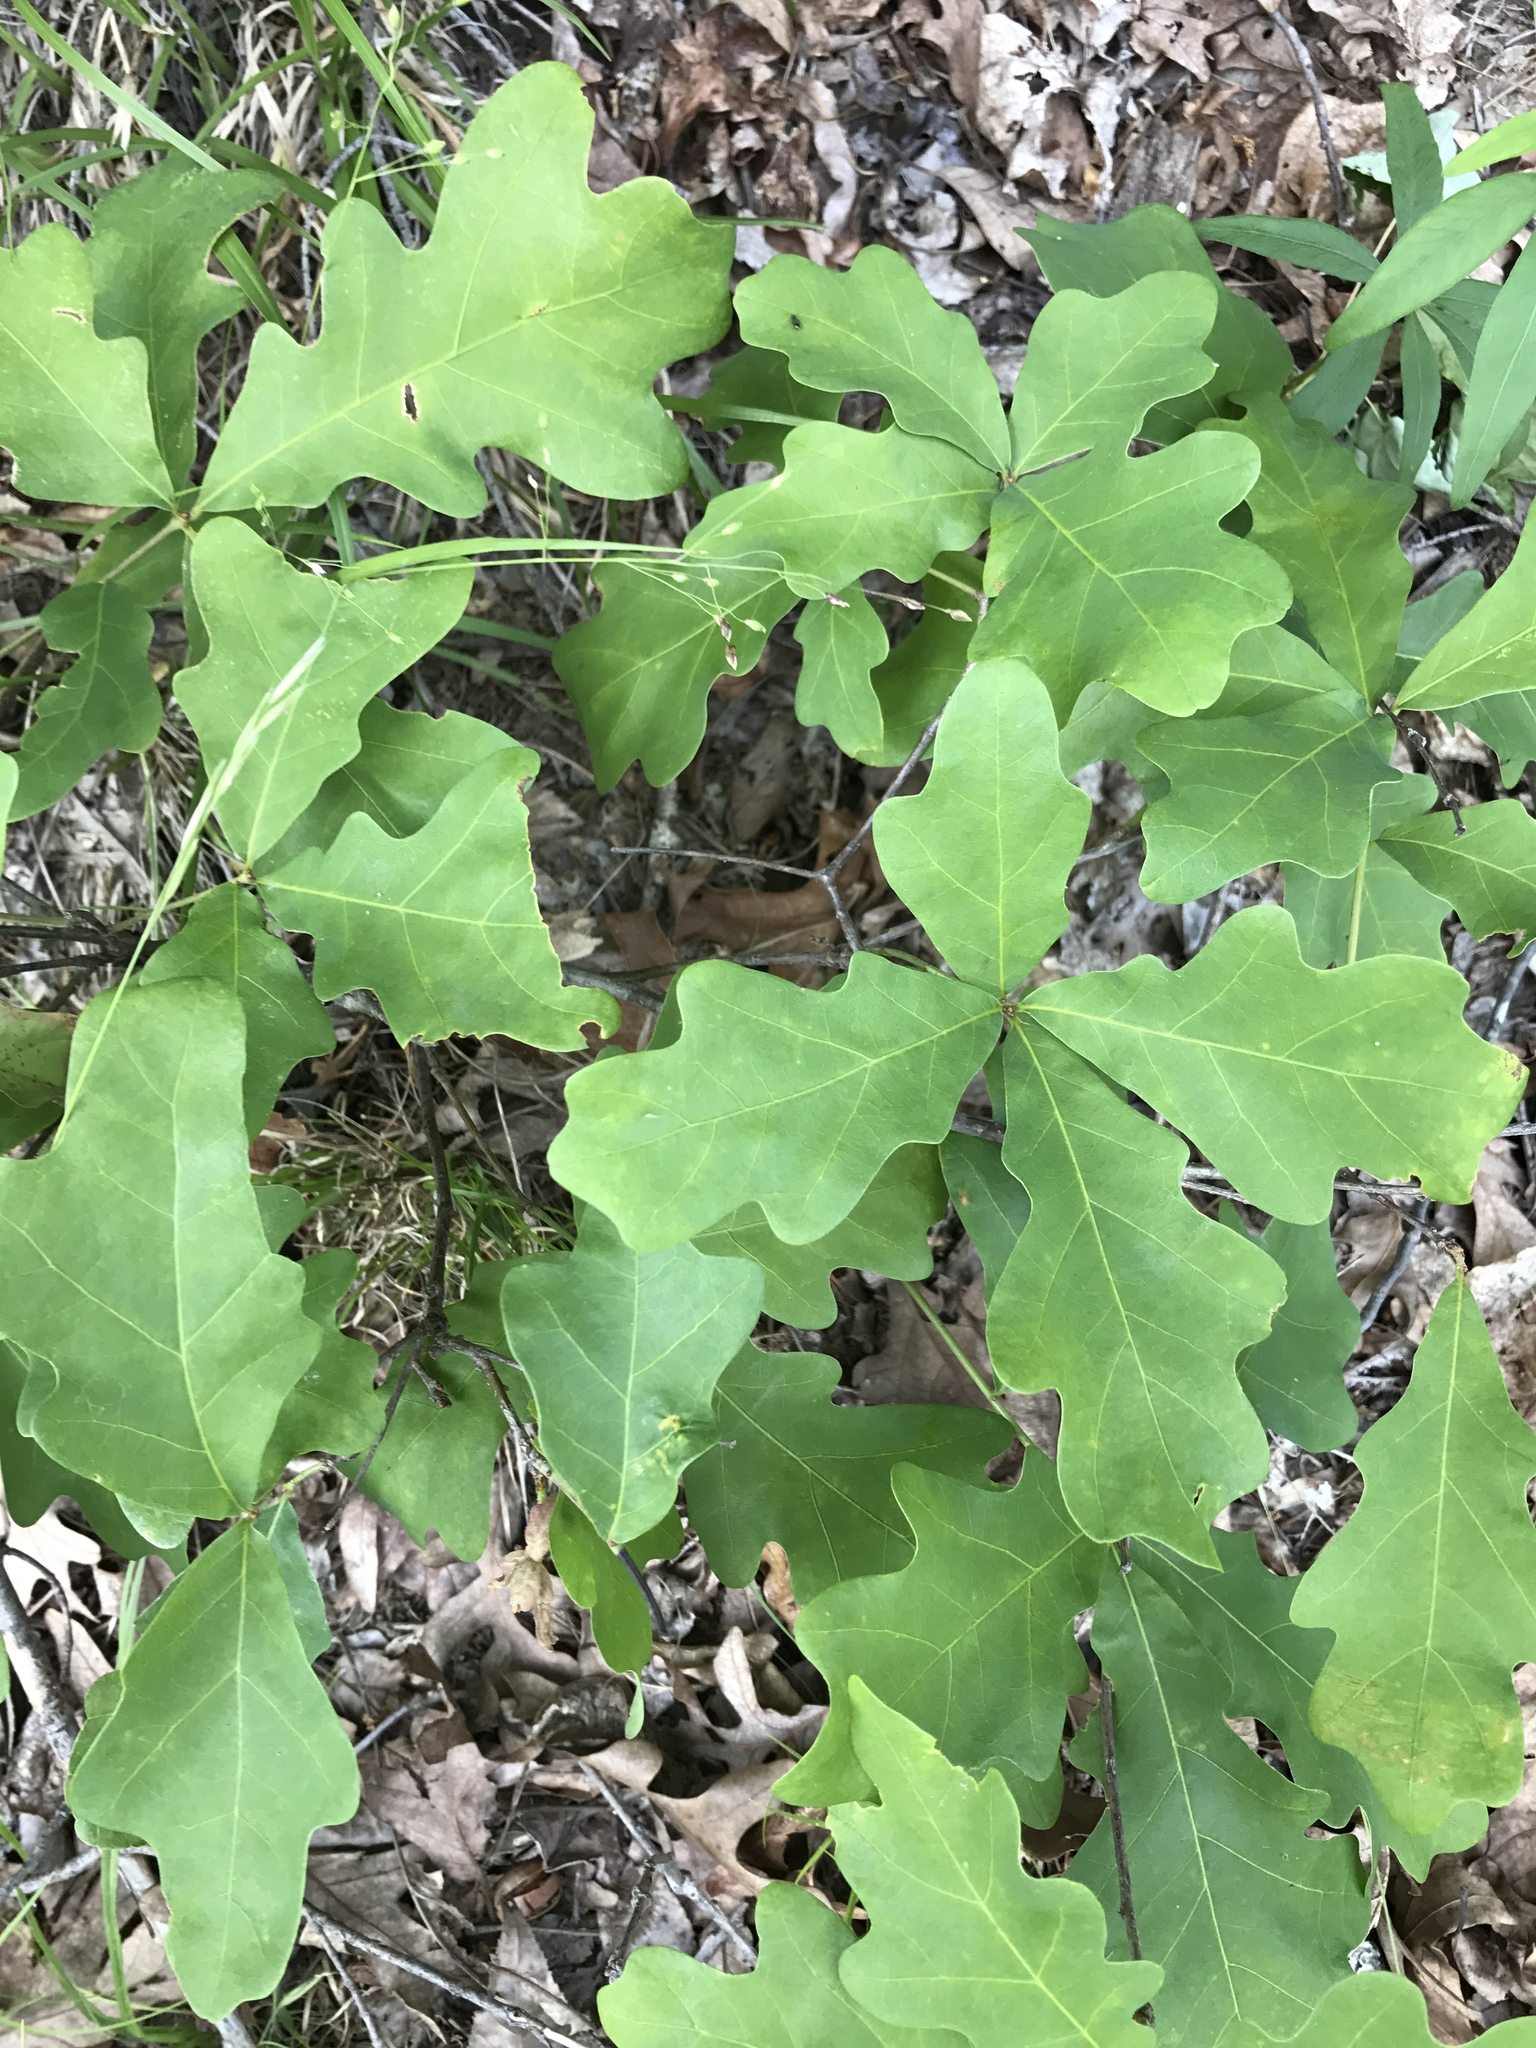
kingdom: Plantae
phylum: Tracheophyta
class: Magnoliopsida
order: Fagales
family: Fagaceae
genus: Quercus
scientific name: Quercus alba
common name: White oak
